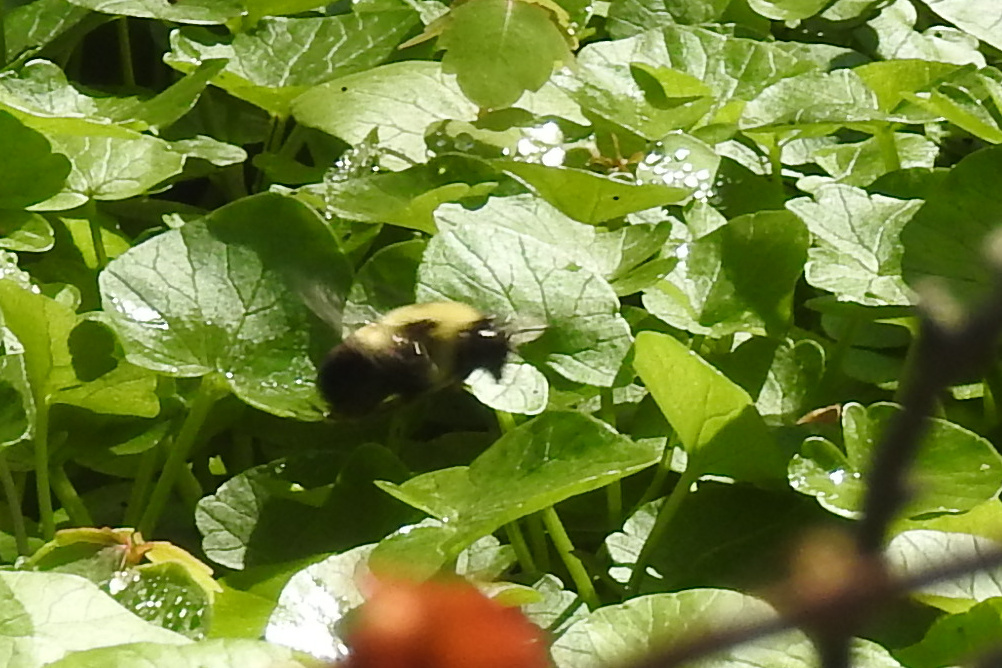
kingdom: Animalia
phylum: Arthropoda
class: Insecta
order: Hymenoptera
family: Apidae
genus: Bombus
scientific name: Bombus griseocollis
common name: Brown-belted bumble bee
